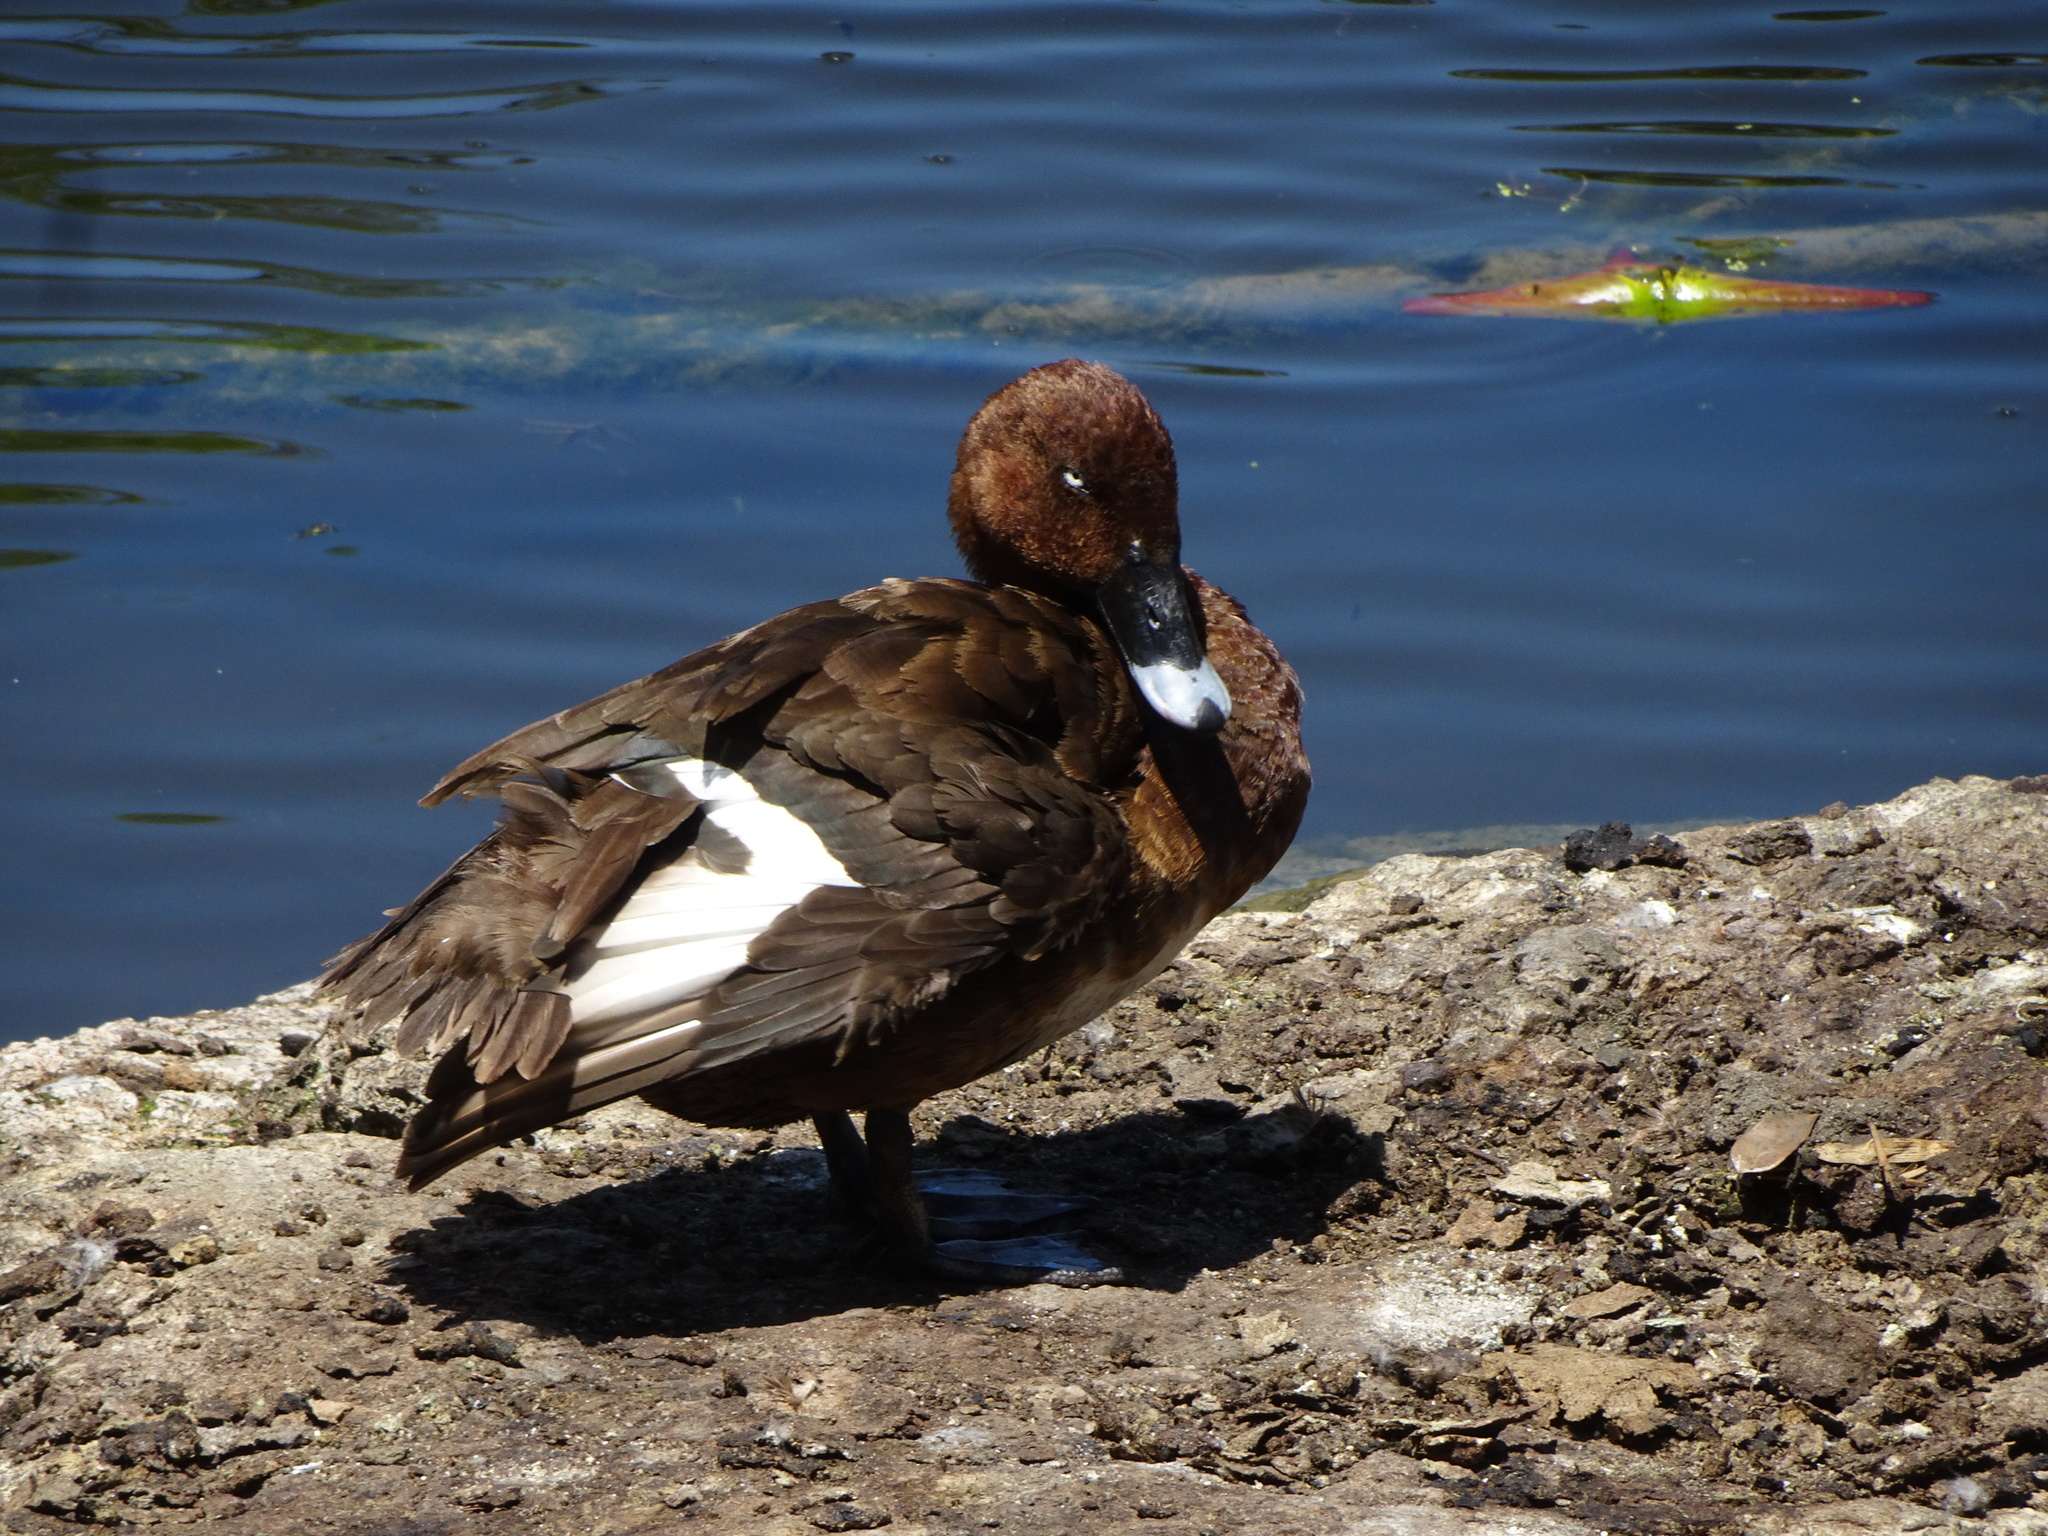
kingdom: Animalia
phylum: Chordata
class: Aves
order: Anseriformes
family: Anatidae
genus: Aythya
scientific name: Aythya australis
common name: Hardhead
